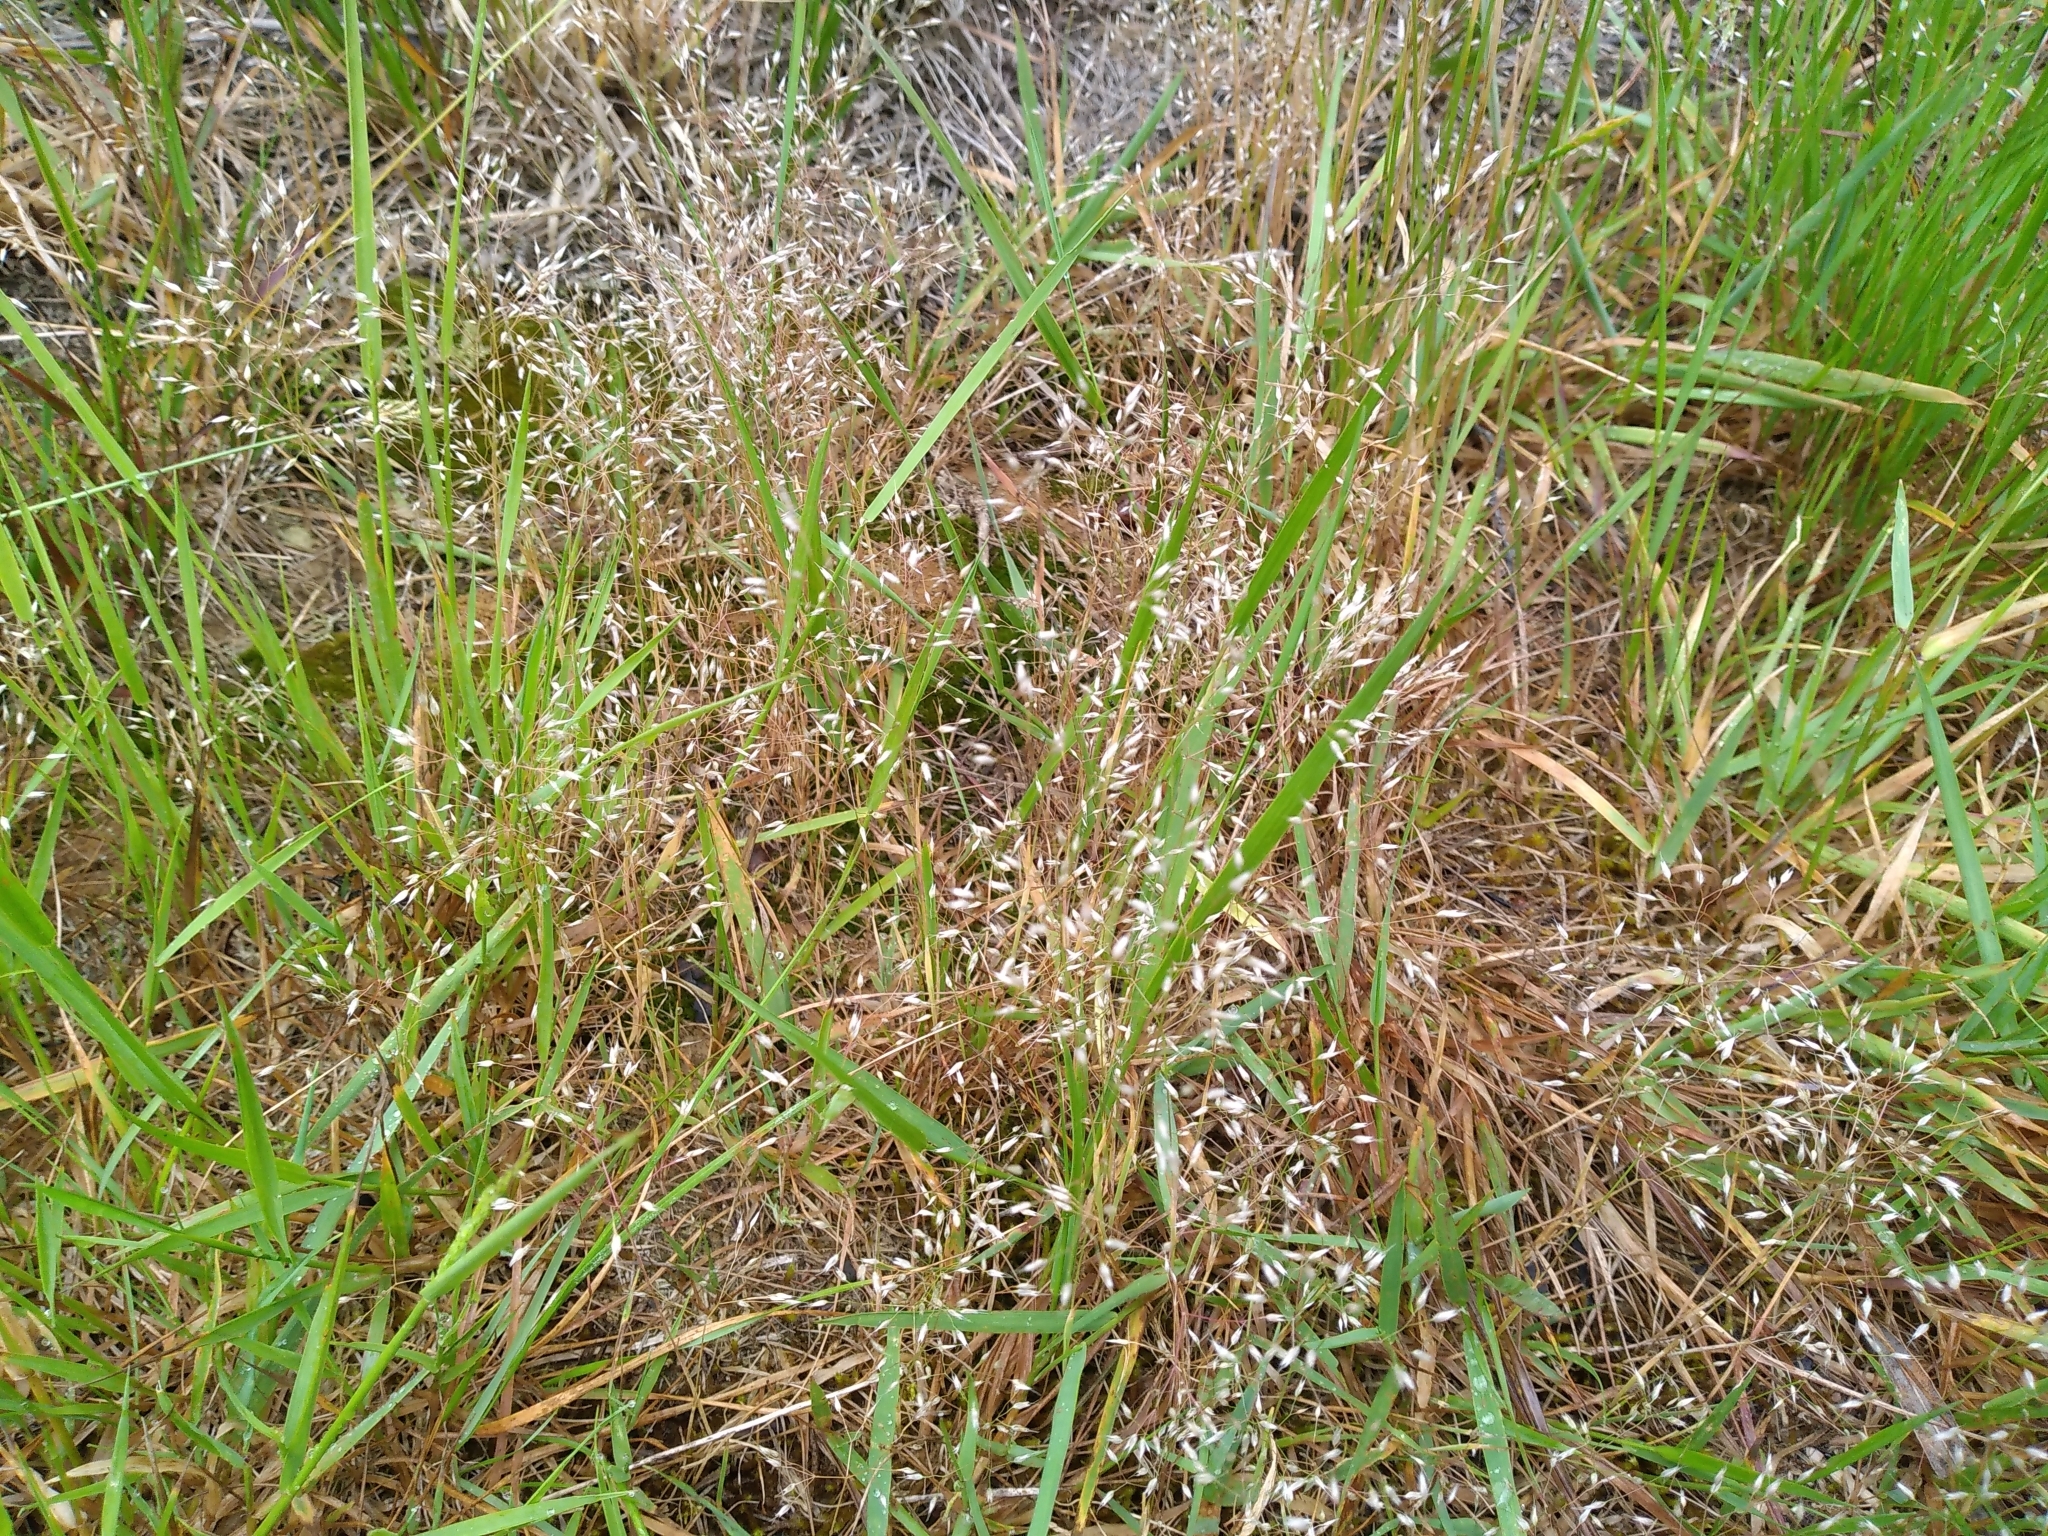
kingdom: Plantae
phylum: Tracheophyta
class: Liliopsida
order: Poales
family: Poaceae
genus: Aira
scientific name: Aira caryophyllea
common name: Silver hairgrass
